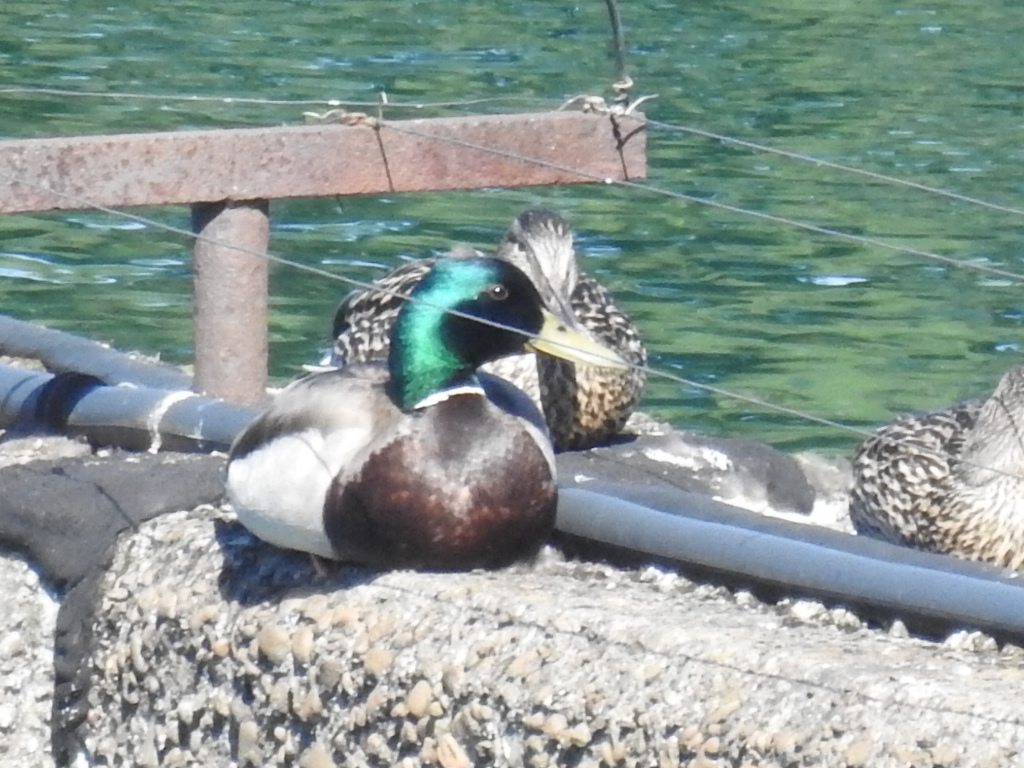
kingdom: Animalia
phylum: Chordata
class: Aves
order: Anseriformes
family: Anatidae
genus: Anas
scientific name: Anas platyrhynchos
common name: Mallard
